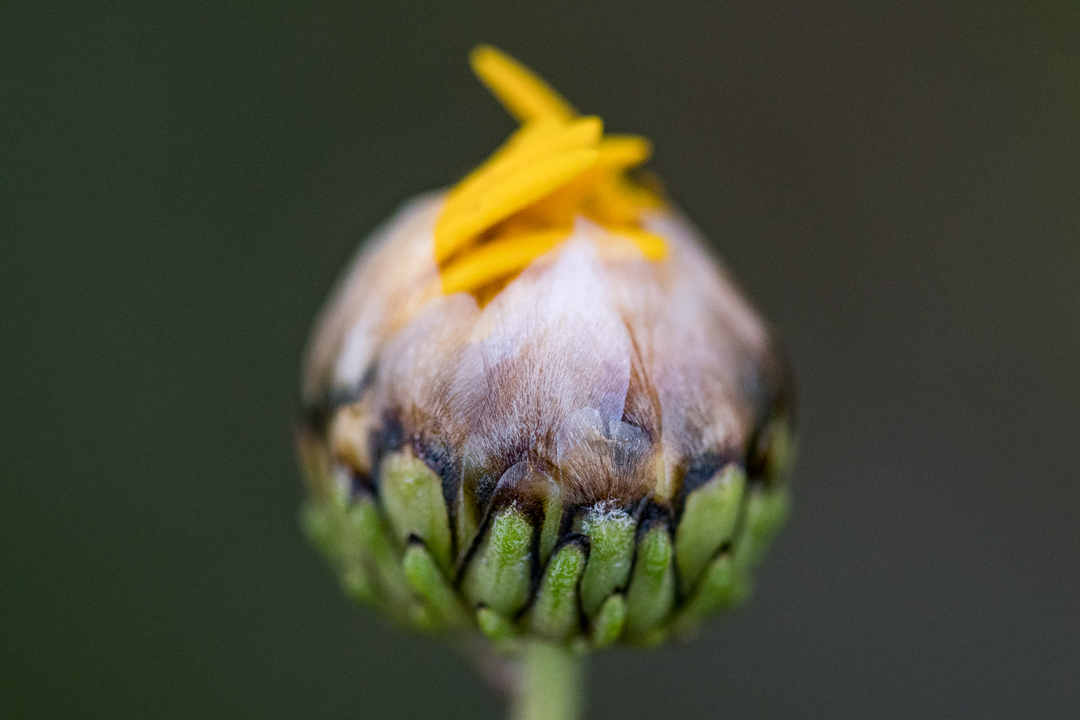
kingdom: Plantae
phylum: Tracheophyta
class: Magnoliopsida
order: Asterales
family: Asteraceae
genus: Ursinia
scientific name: Ursinia paleacea
